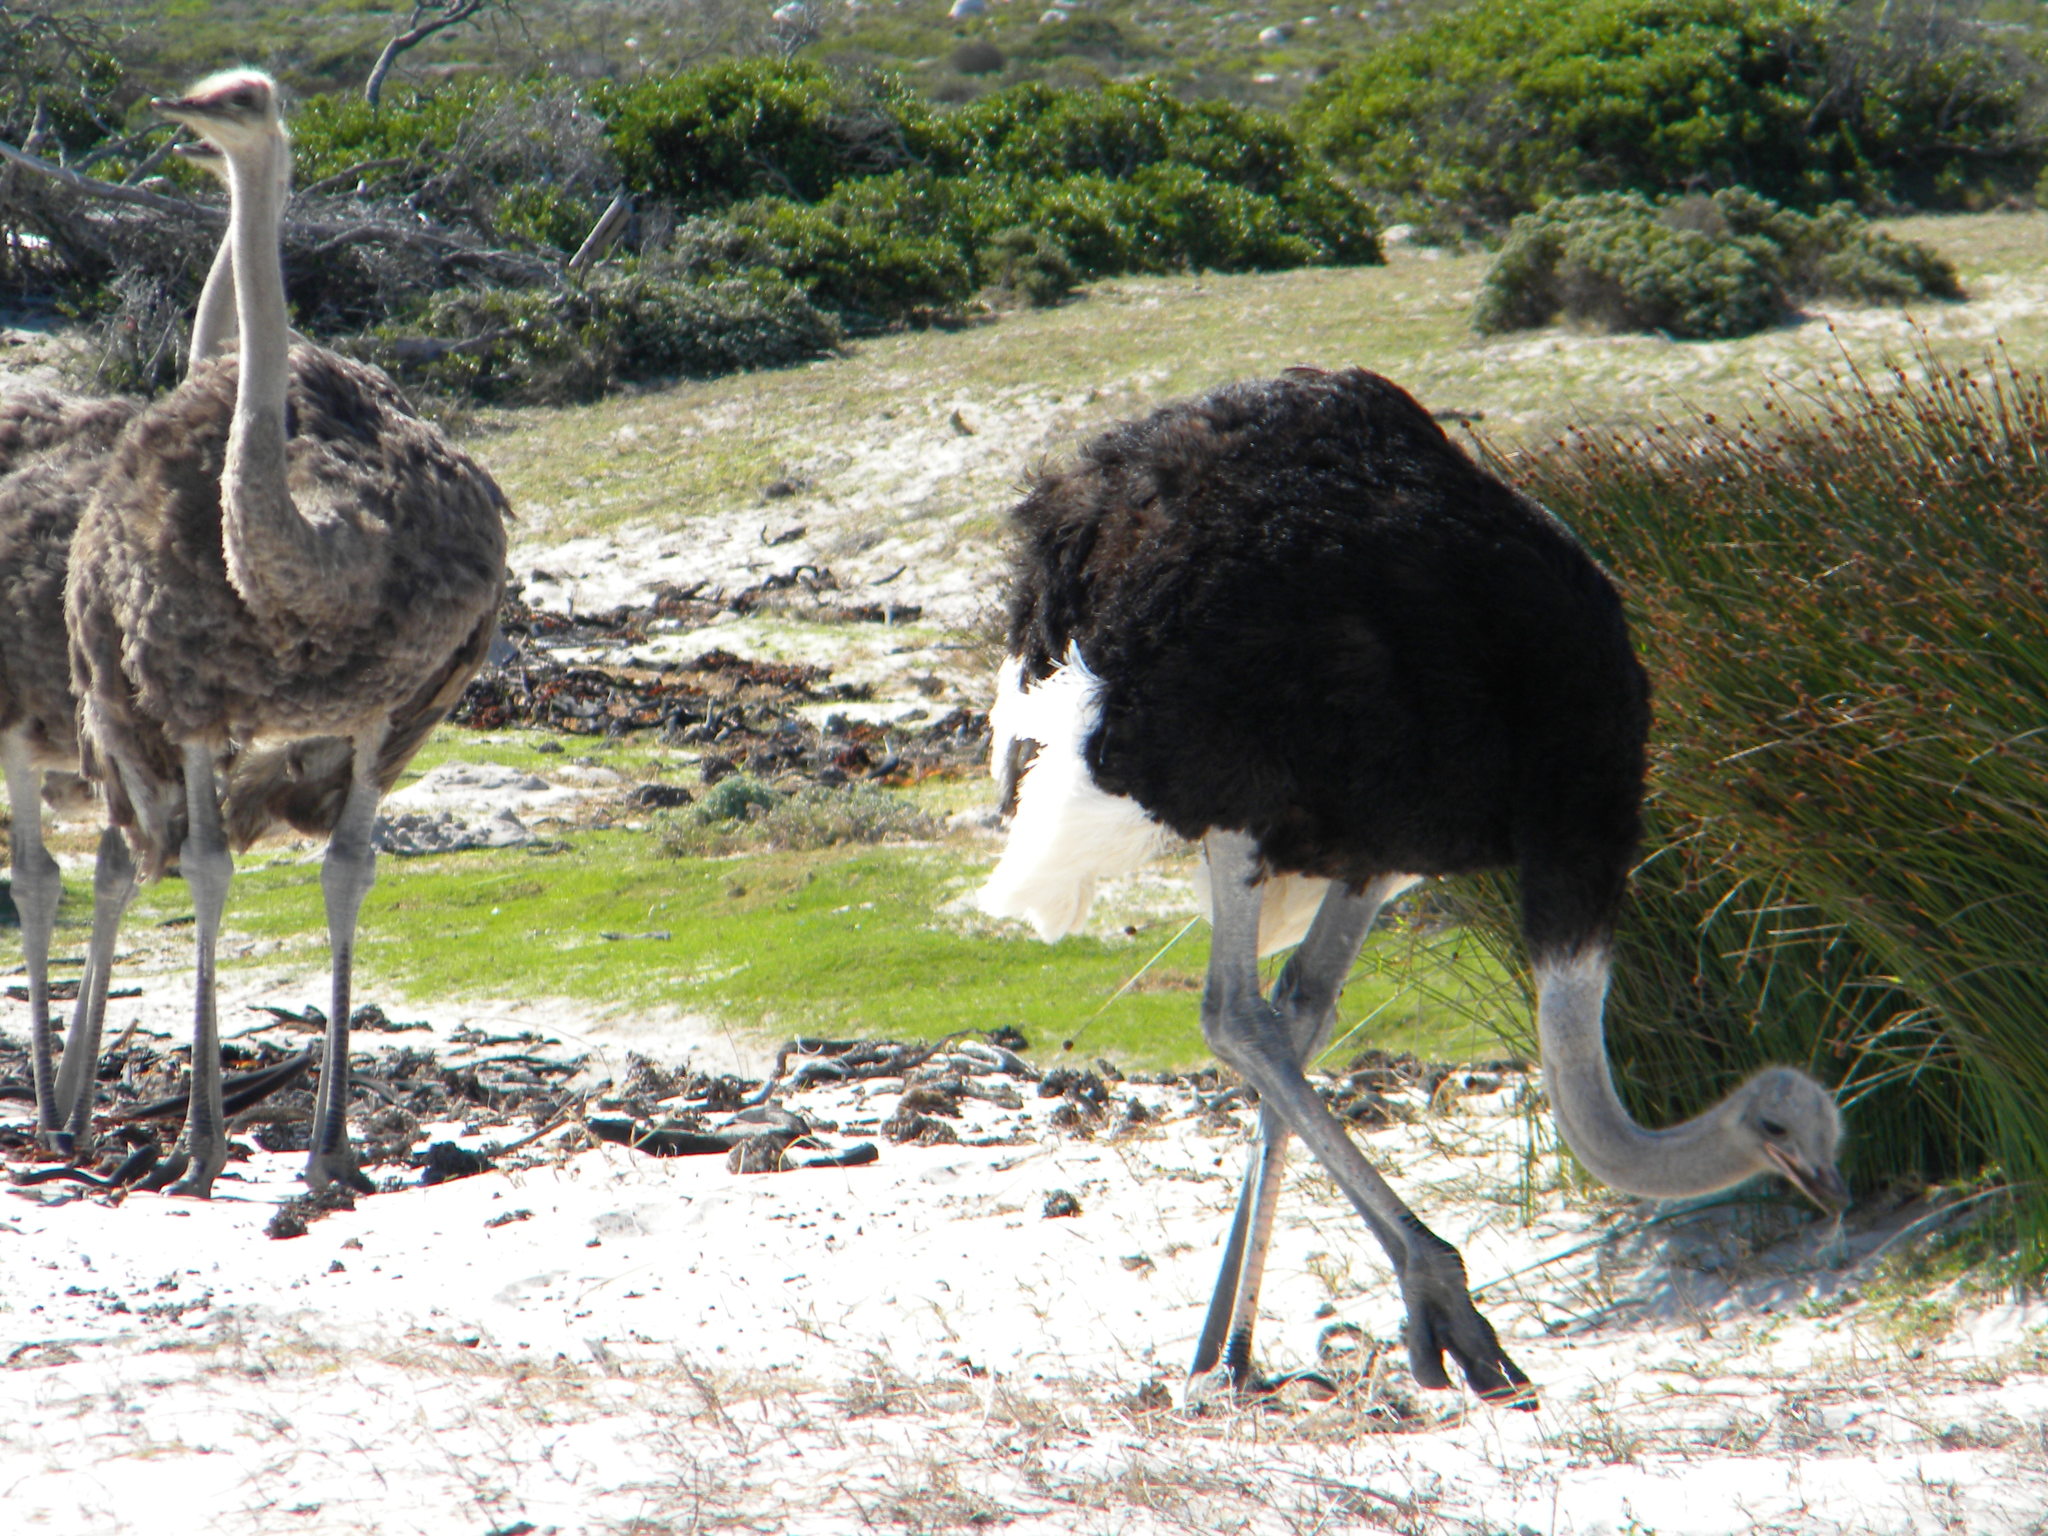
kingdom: Animalia
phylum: Chordata
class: Aves
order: Struthioniformes
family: Struthionidae
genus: Struthio
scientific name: Struthio camelus
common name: Common ostrich
